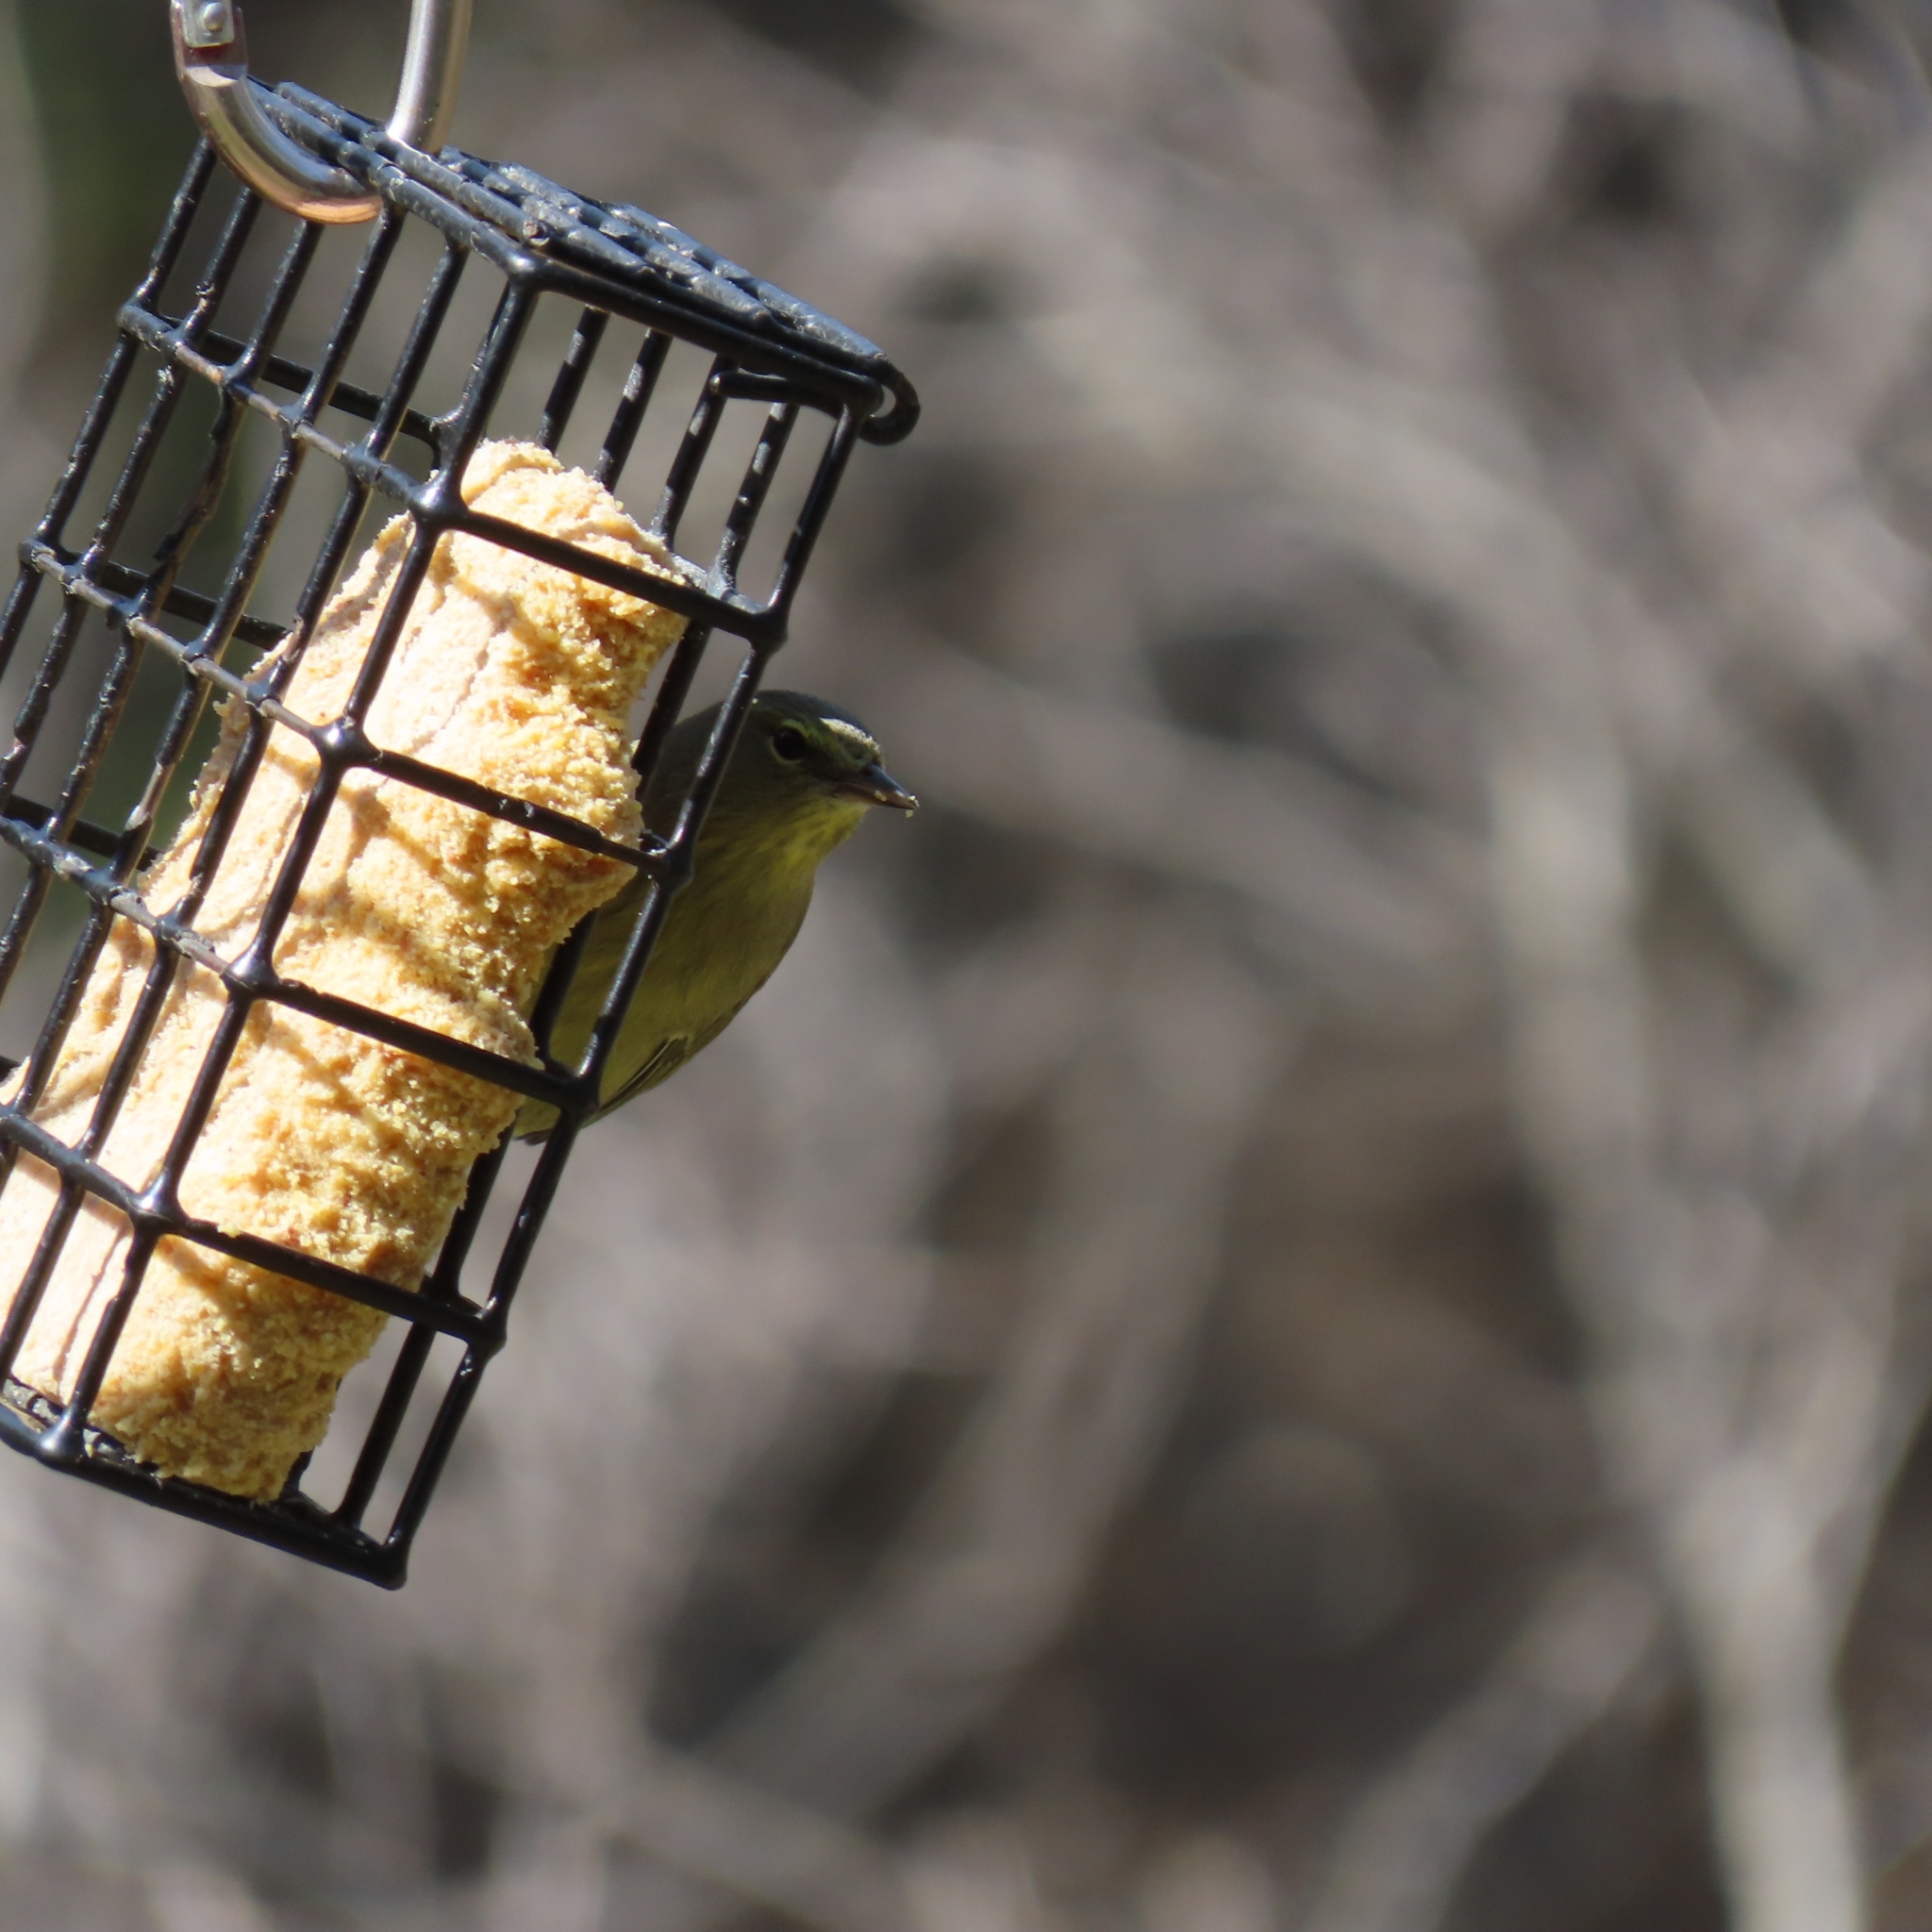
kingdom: Animalia
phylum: Chordata
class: Aves
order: Passeriformes
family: Parulidae
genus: Leiothlypis
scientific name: Leiothlypis celata
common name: Orange-crowned warbler
